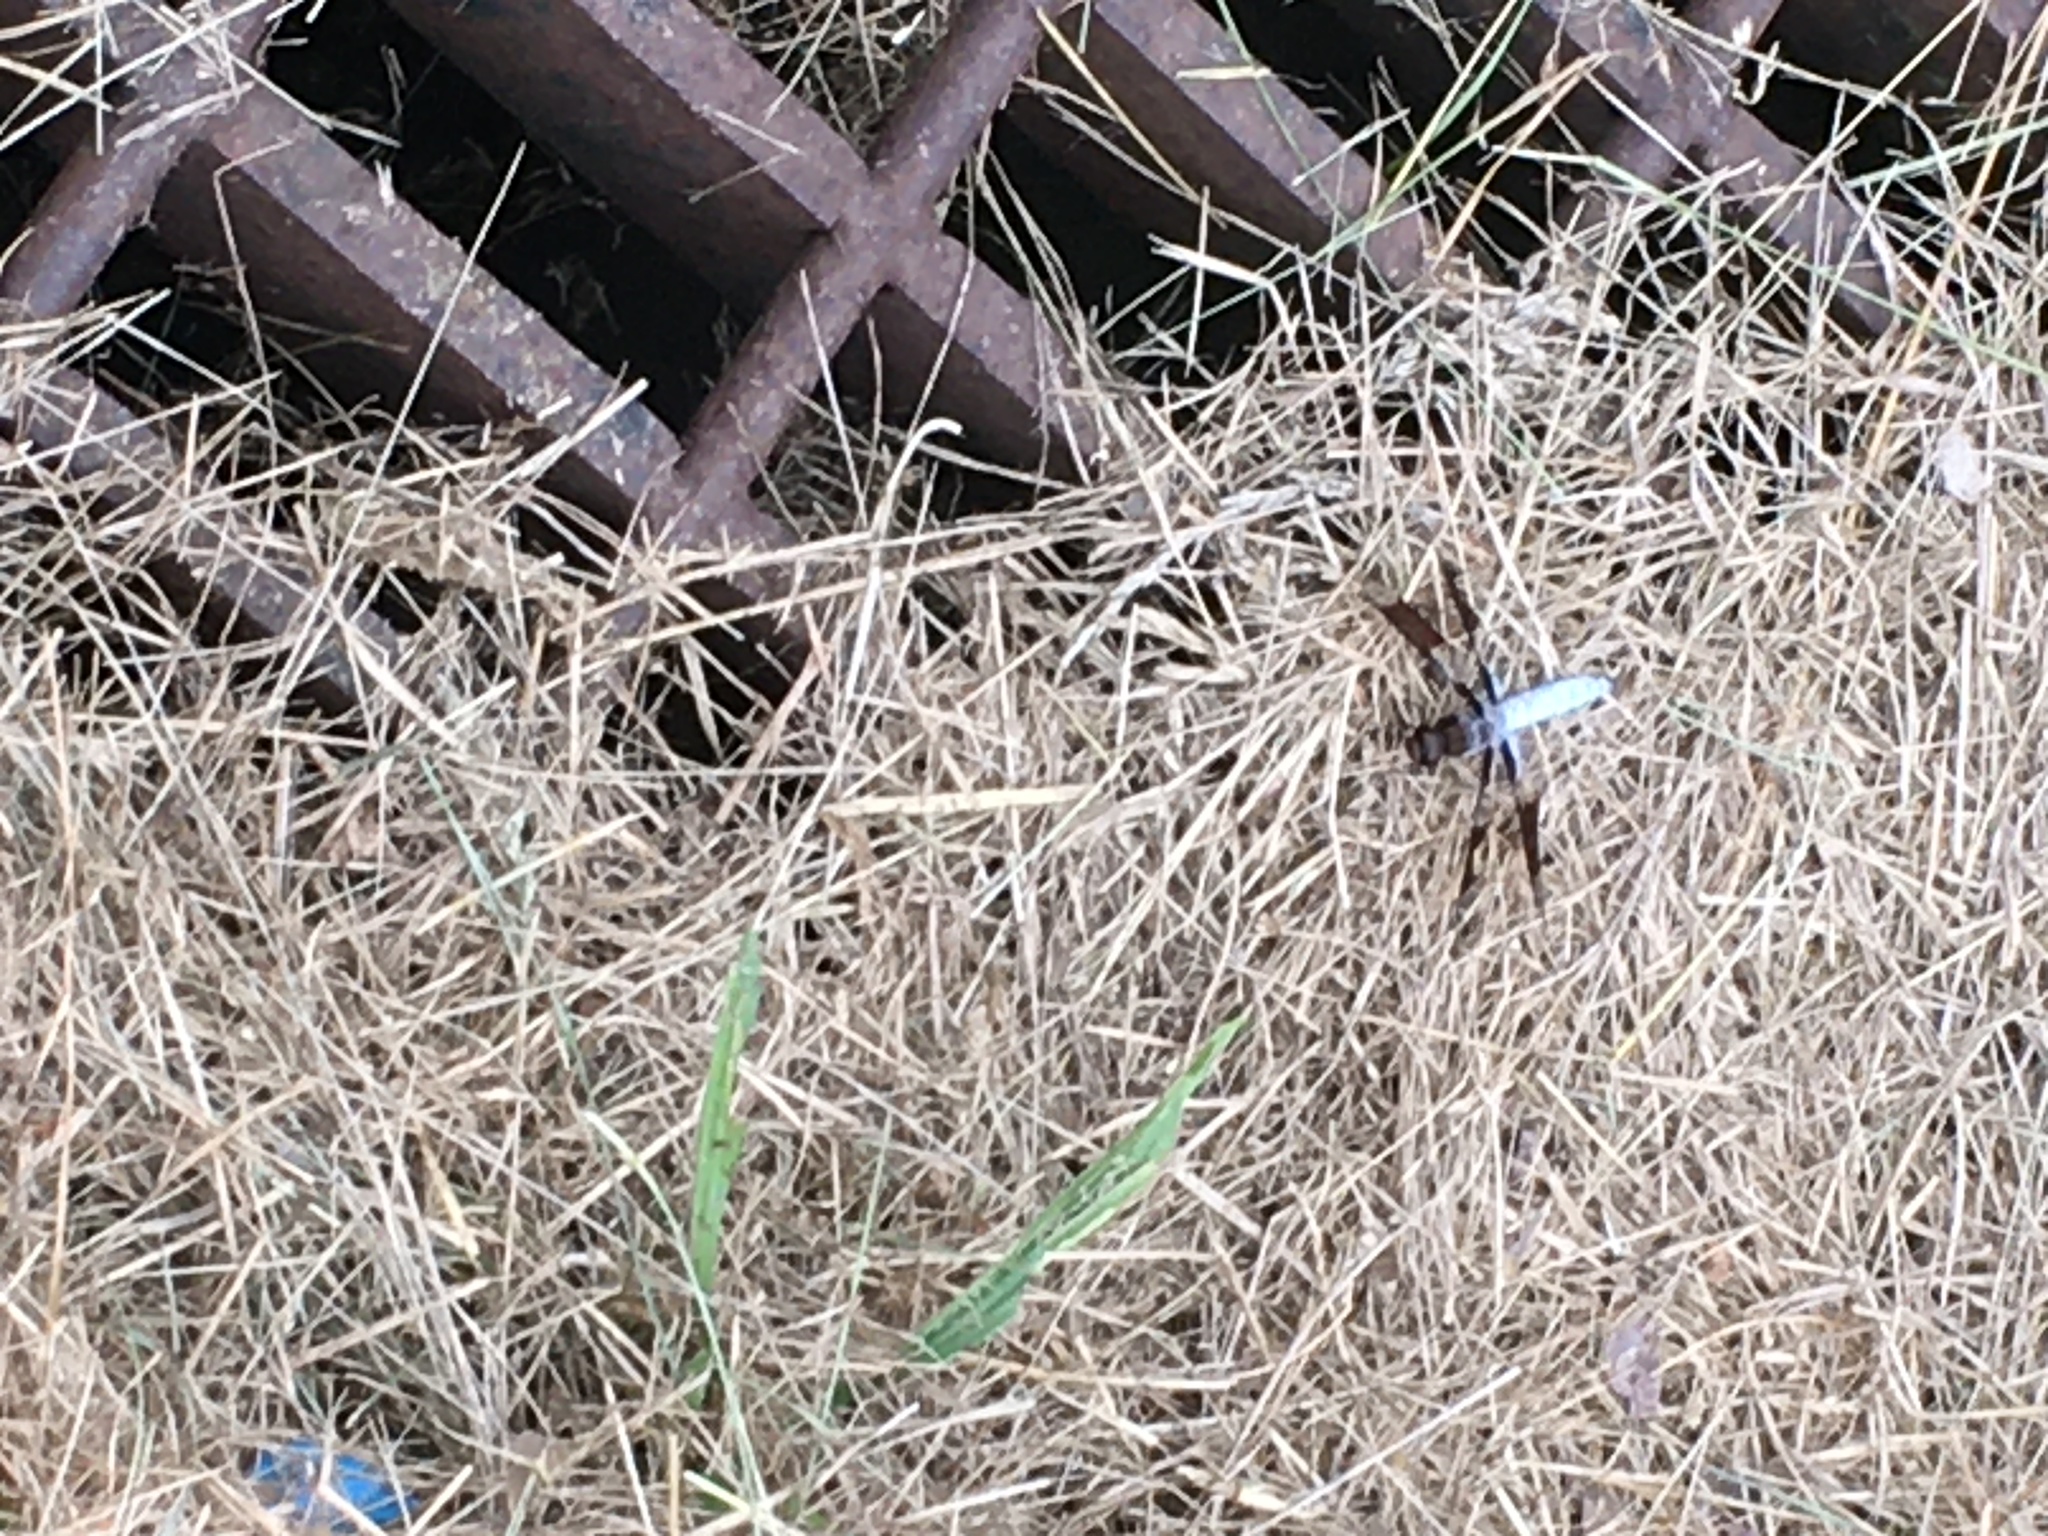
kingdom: Animalia
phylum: Arthropoda
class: Insecta
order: Odonata
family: Libellulidae
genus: Plathemis
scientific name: Plathemis lydia
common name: Common whitetail
